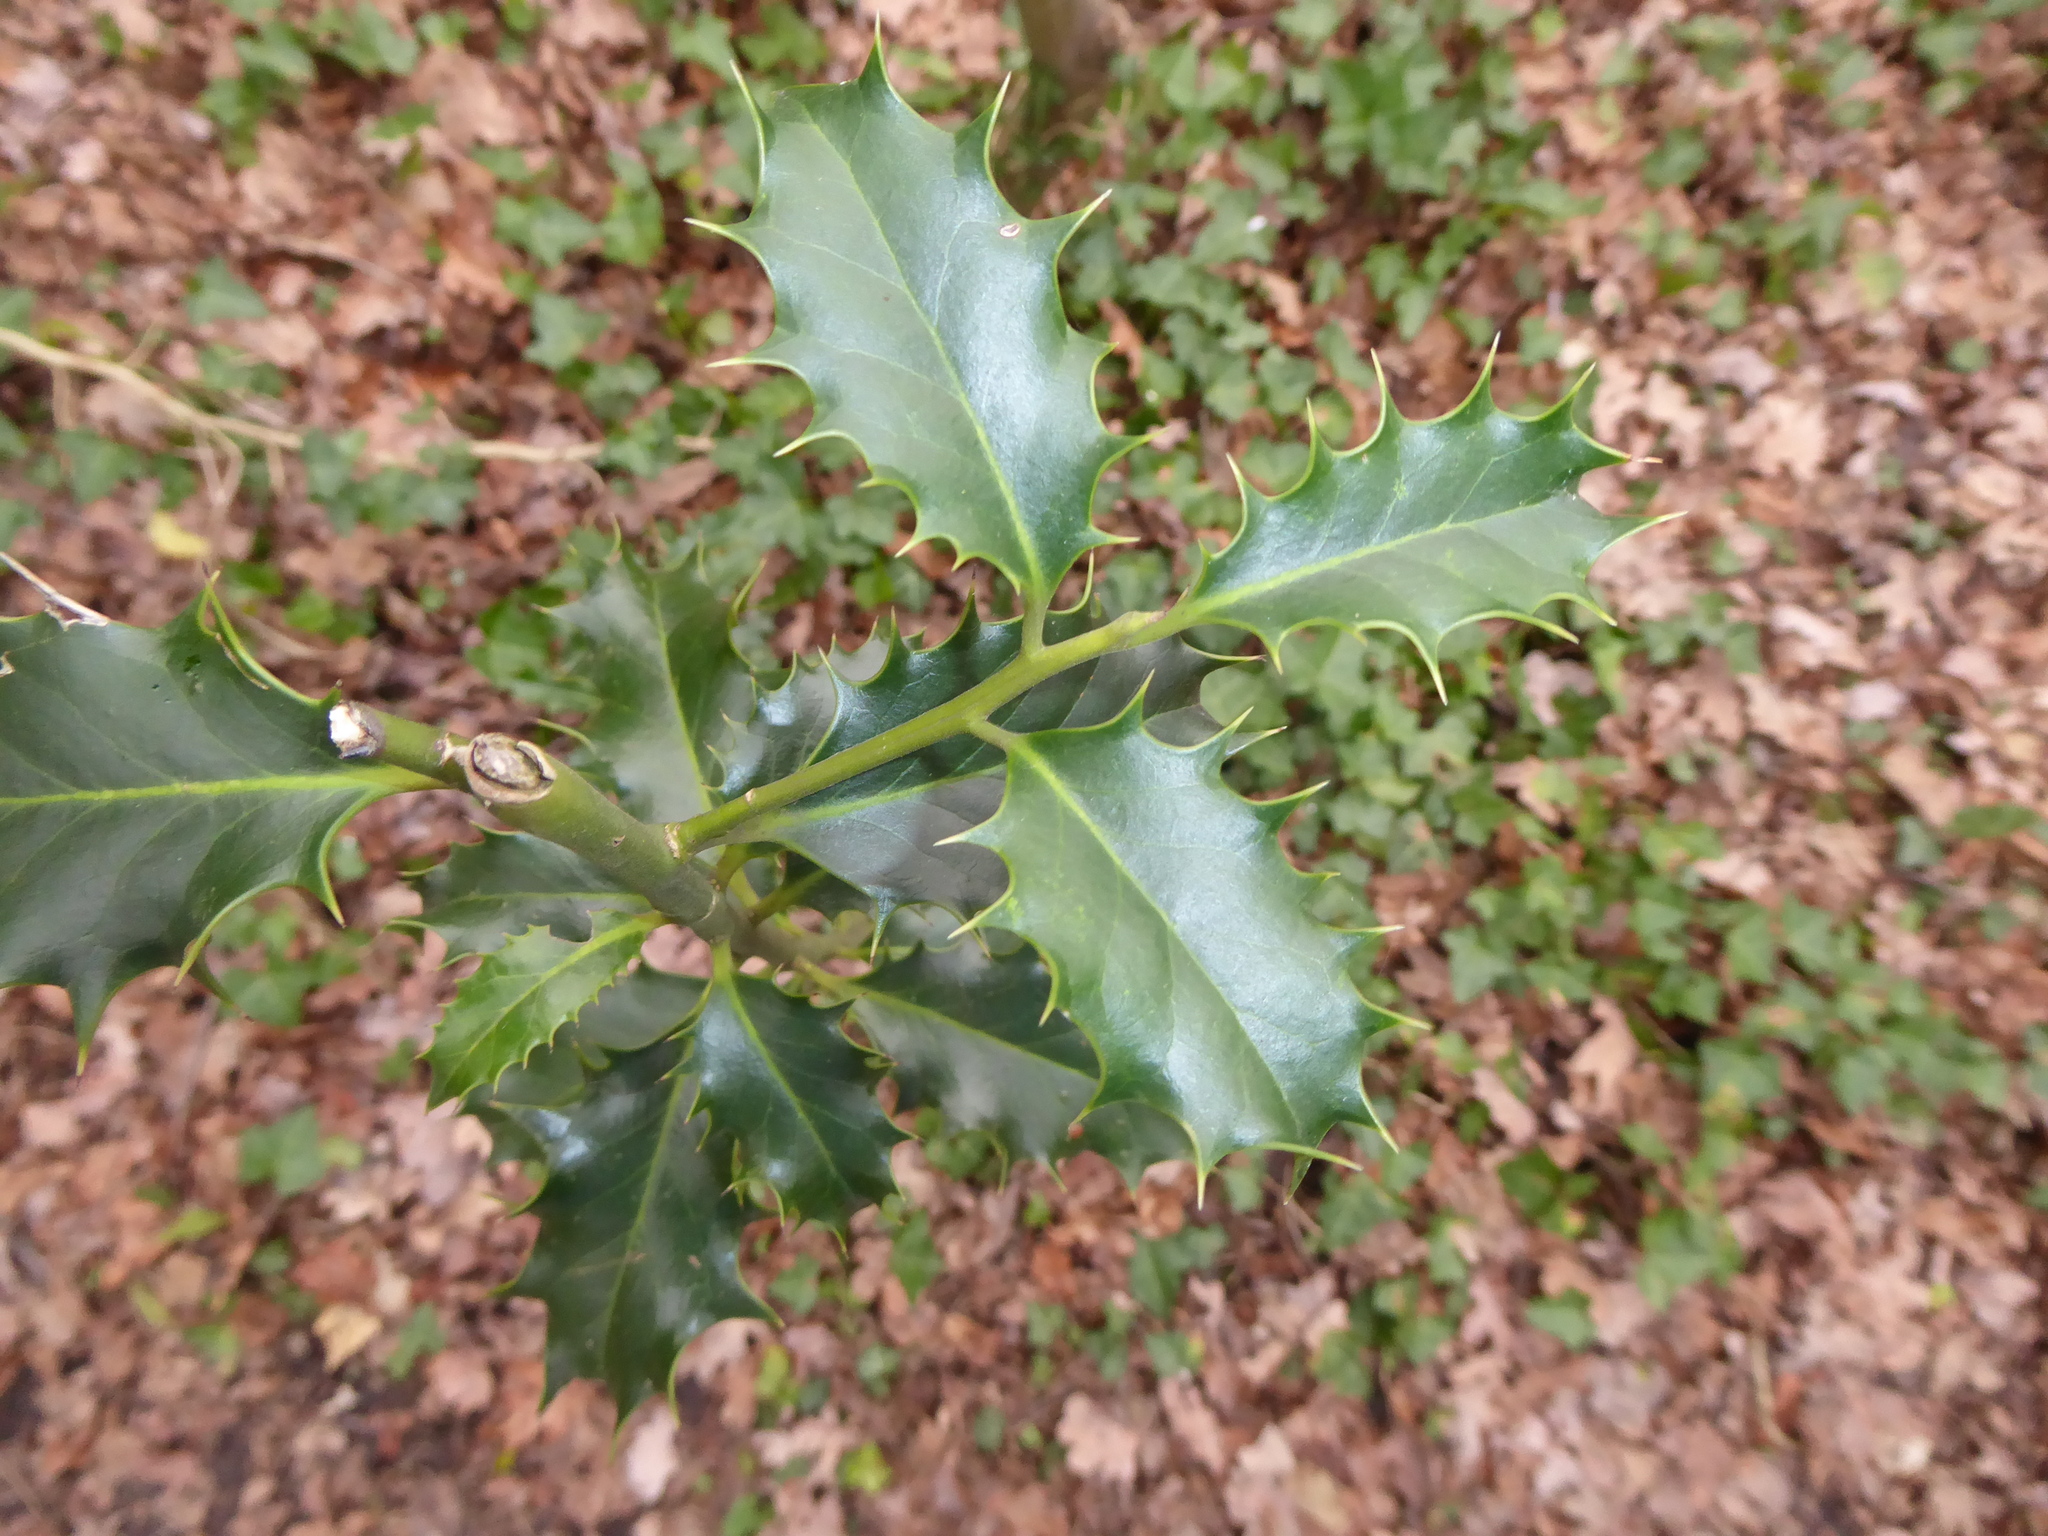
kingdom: Plantae
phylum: Tracheophyta
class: Magnoliopsida
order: Aquifoliales
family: Aquifoliaceae
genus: Ilex
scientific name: Ilex aquifolium
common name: English holly
